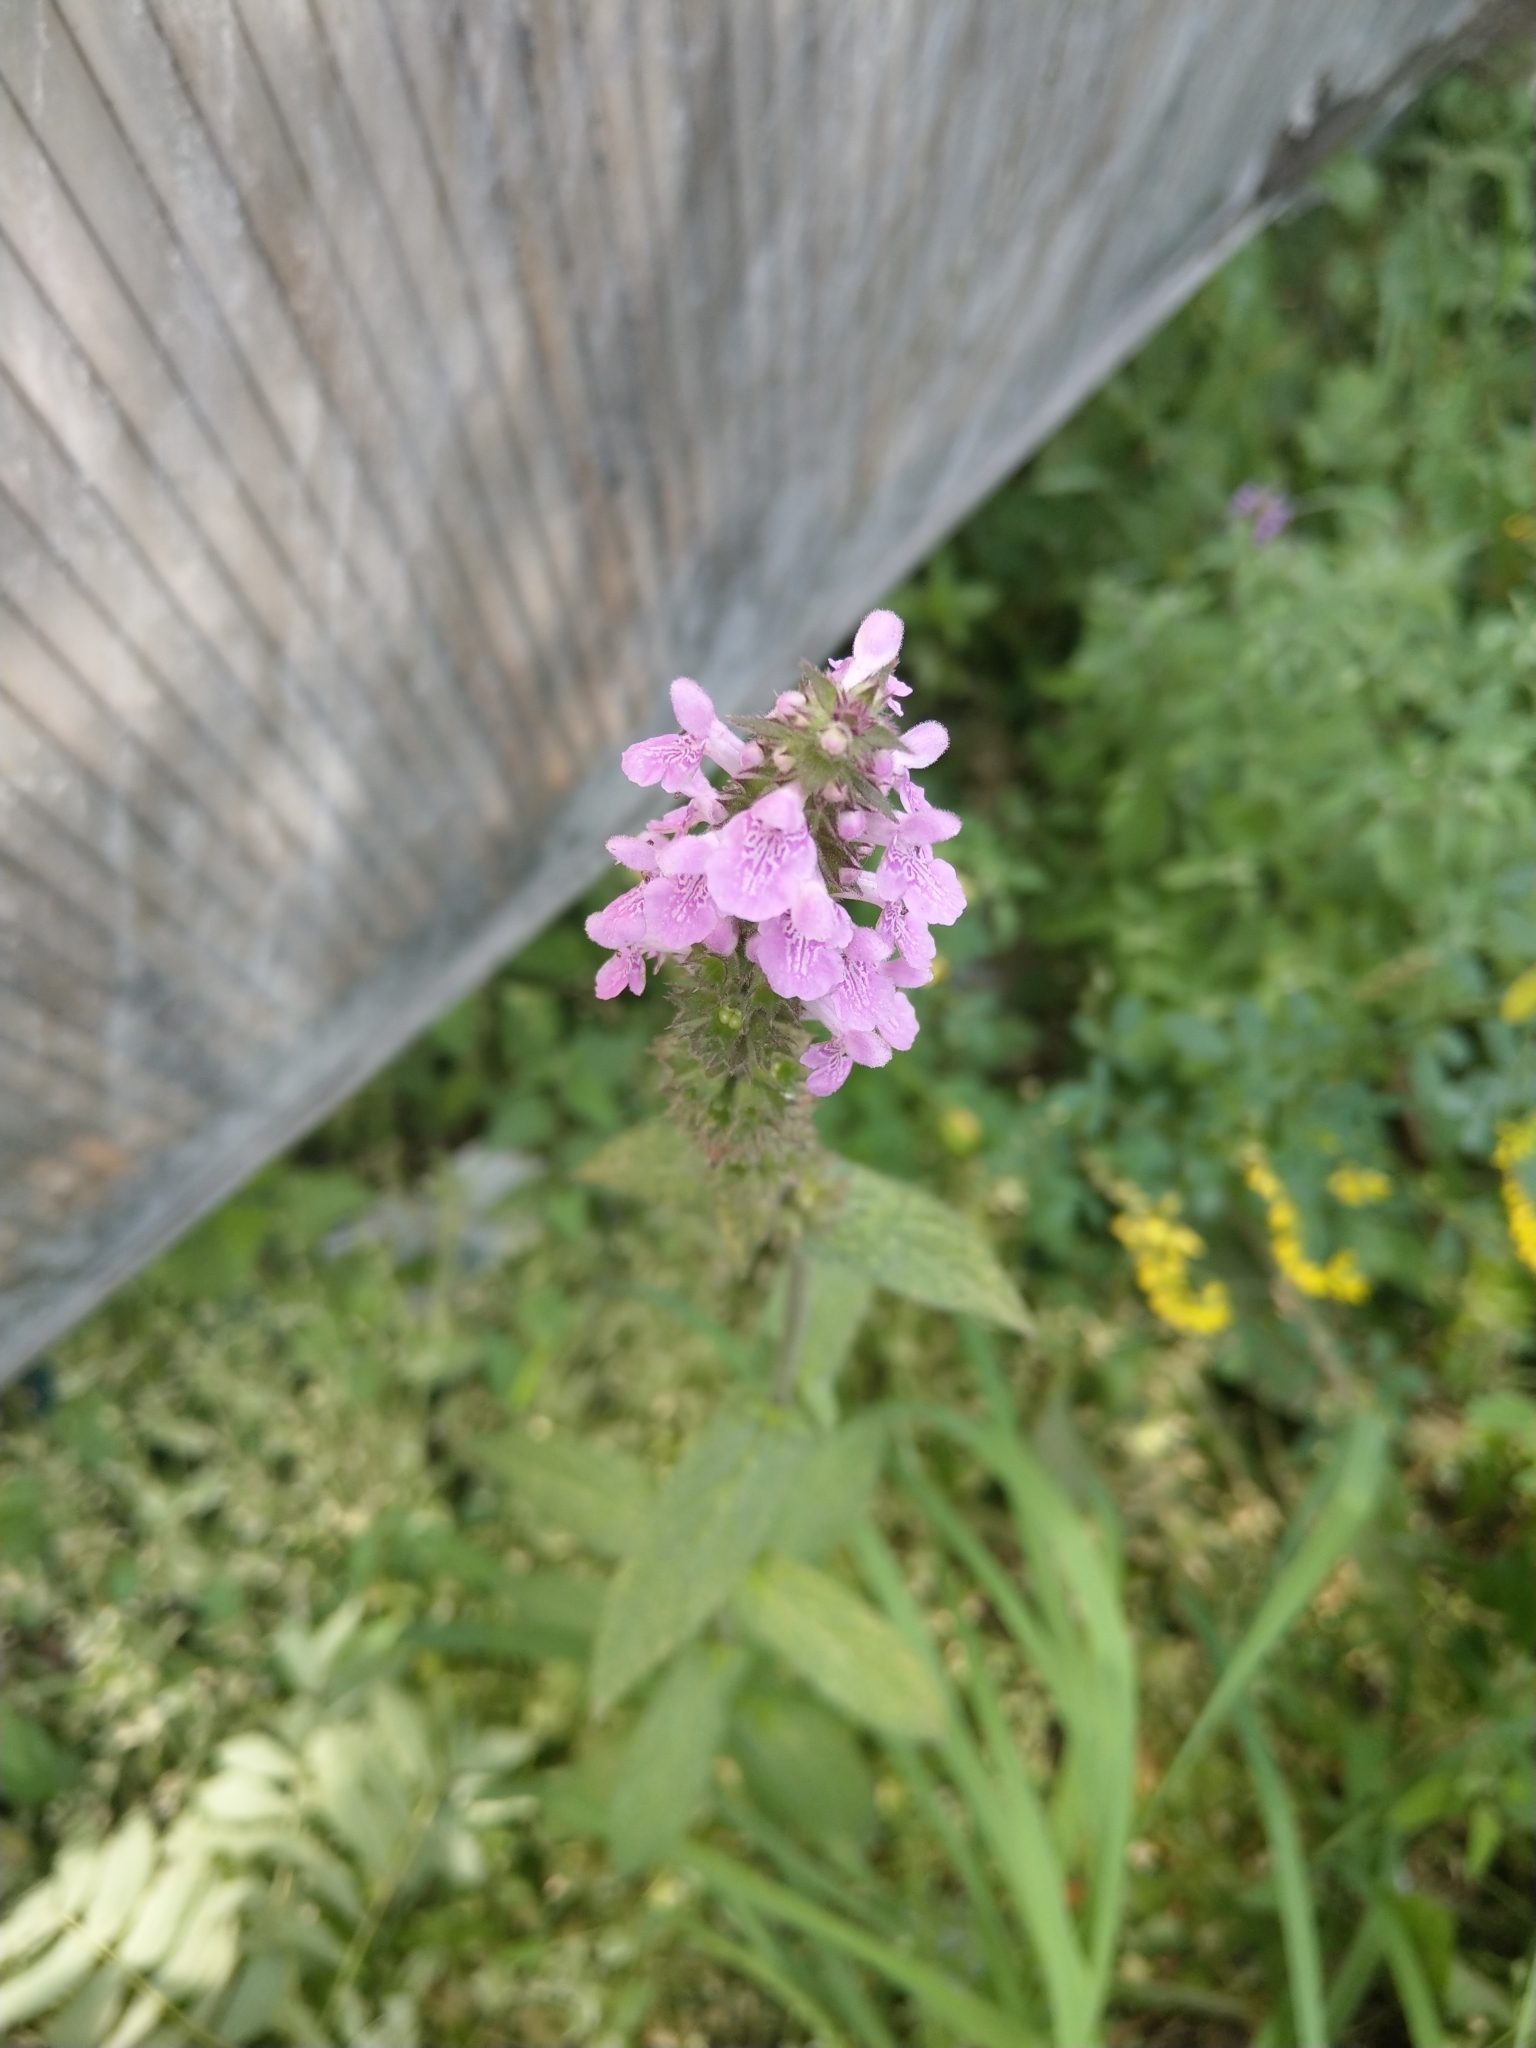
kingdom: Plantae
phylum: Tracheophyta
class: Magnoliopsida
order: Lamiales
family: Lamiaceae
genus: Stachys
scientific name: Stachys palustris
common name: Marsh woundwort
